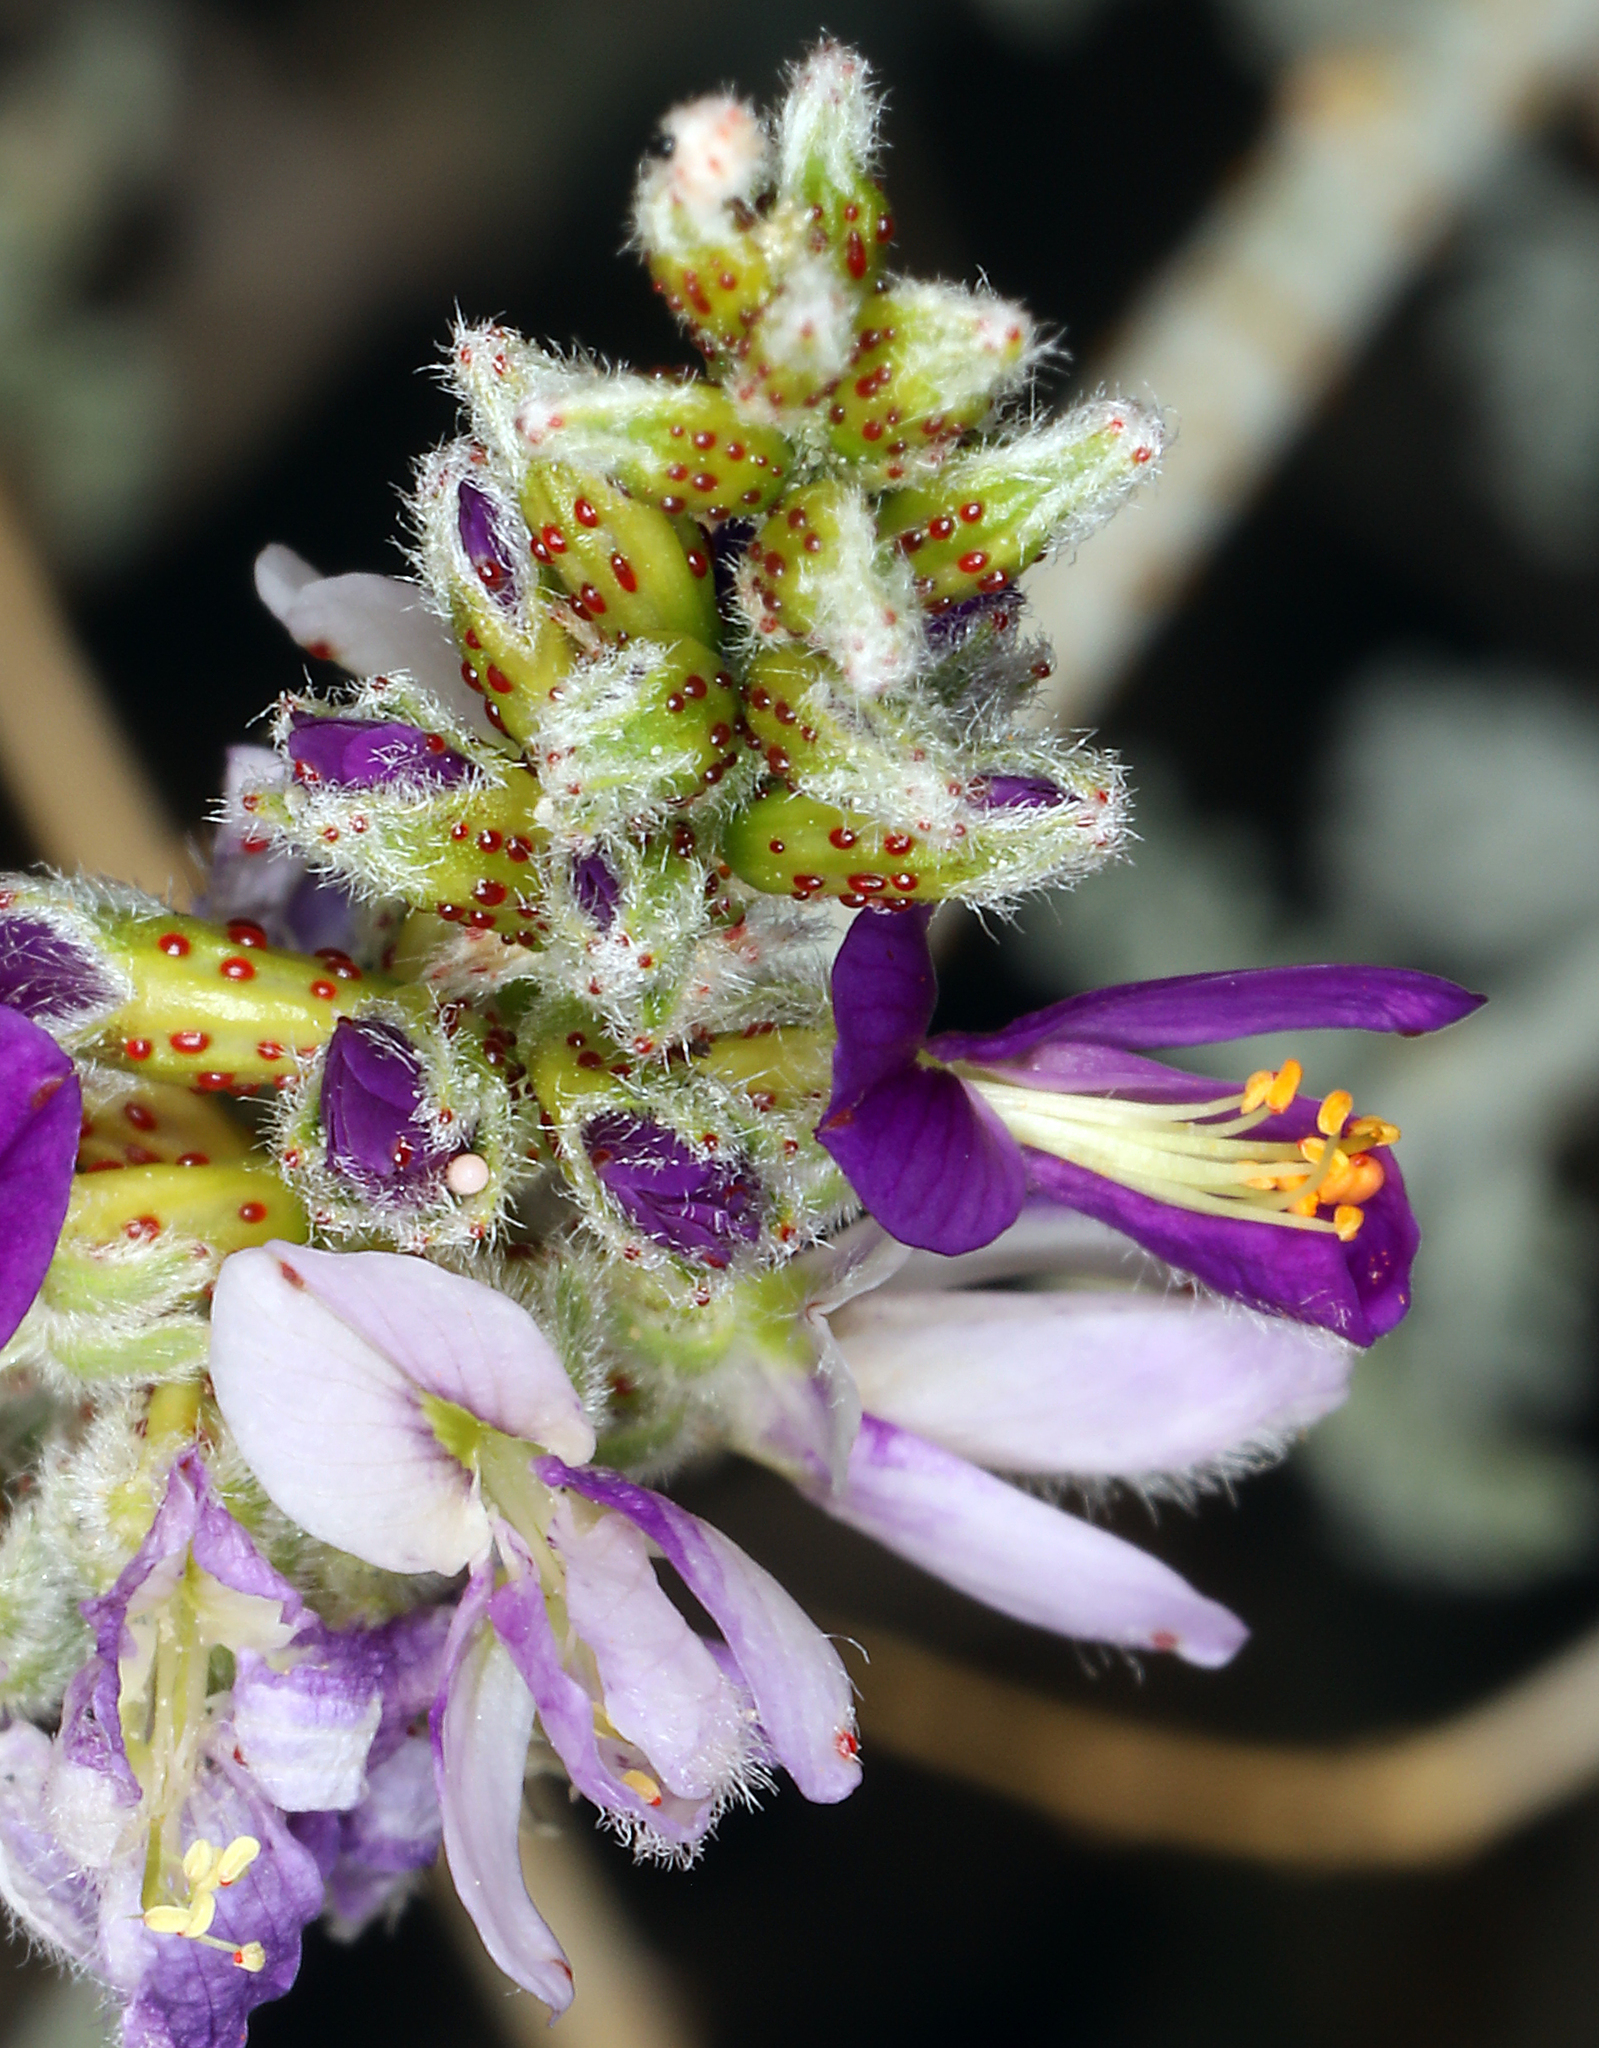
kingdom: Plantae
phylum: Tracheophyta
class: Magnoliopsida
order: Fabales
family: Fabaceae
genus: Psorothamnus
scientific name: Psorothamnus polydenius
